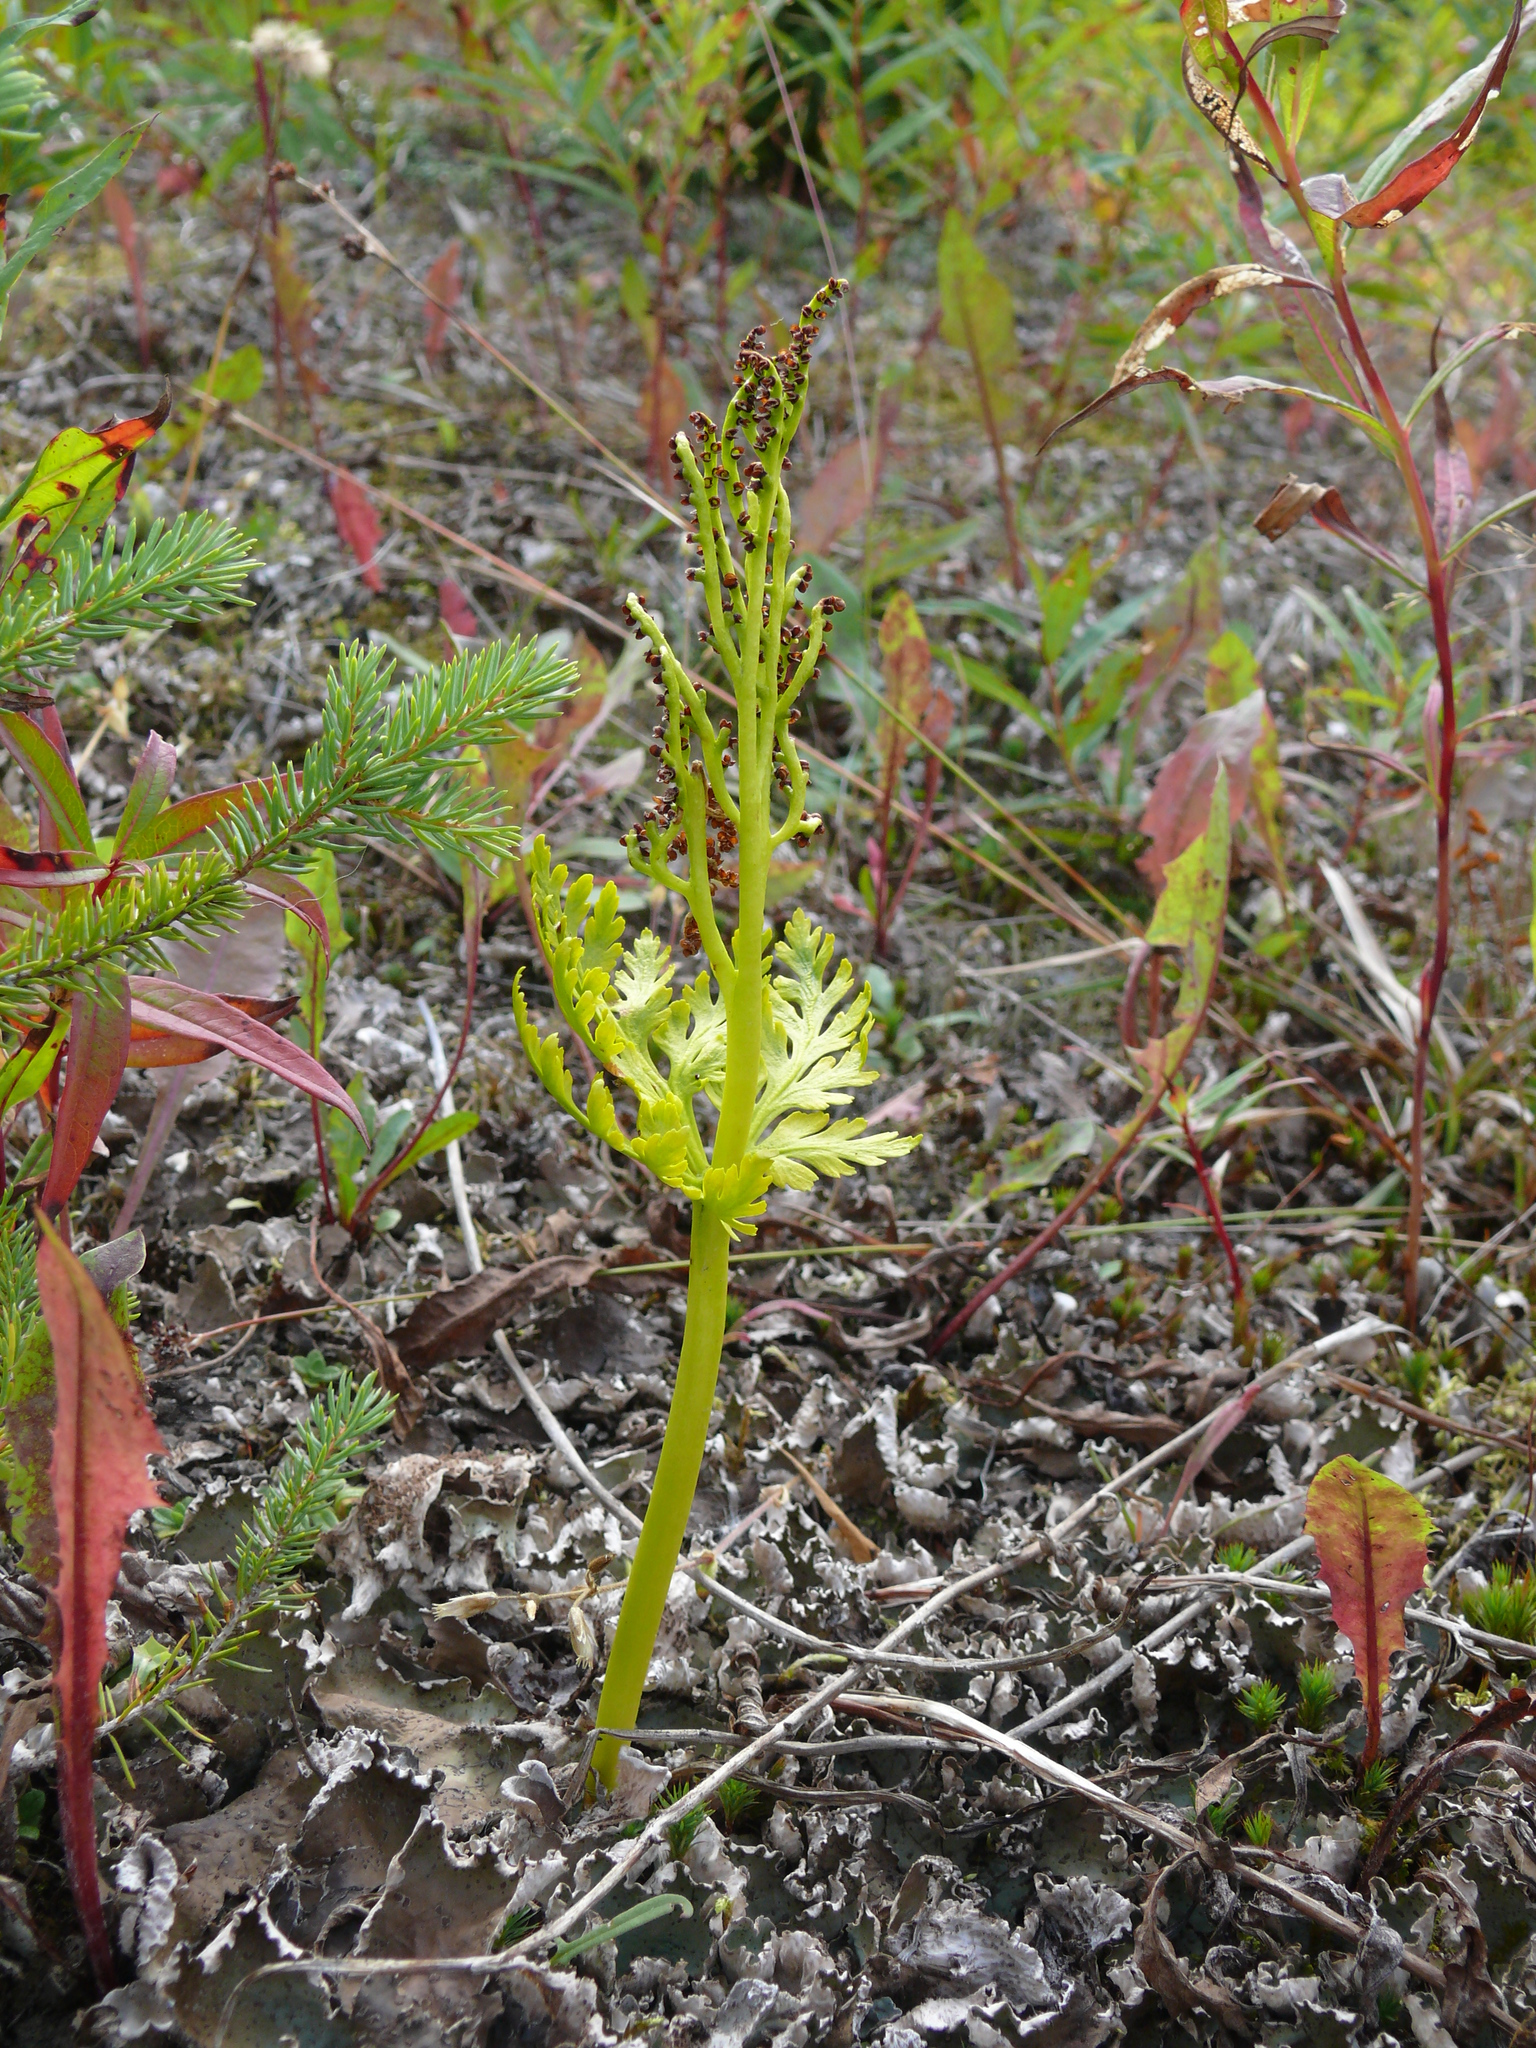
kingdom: Plantae
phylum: Tracheophyta
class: Polypodiopsida
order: Ophioglossales
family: Ophioglossaceae
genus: Botrychium
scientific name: Botrychium lanceolatum
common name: Lance-leaved moonwort
